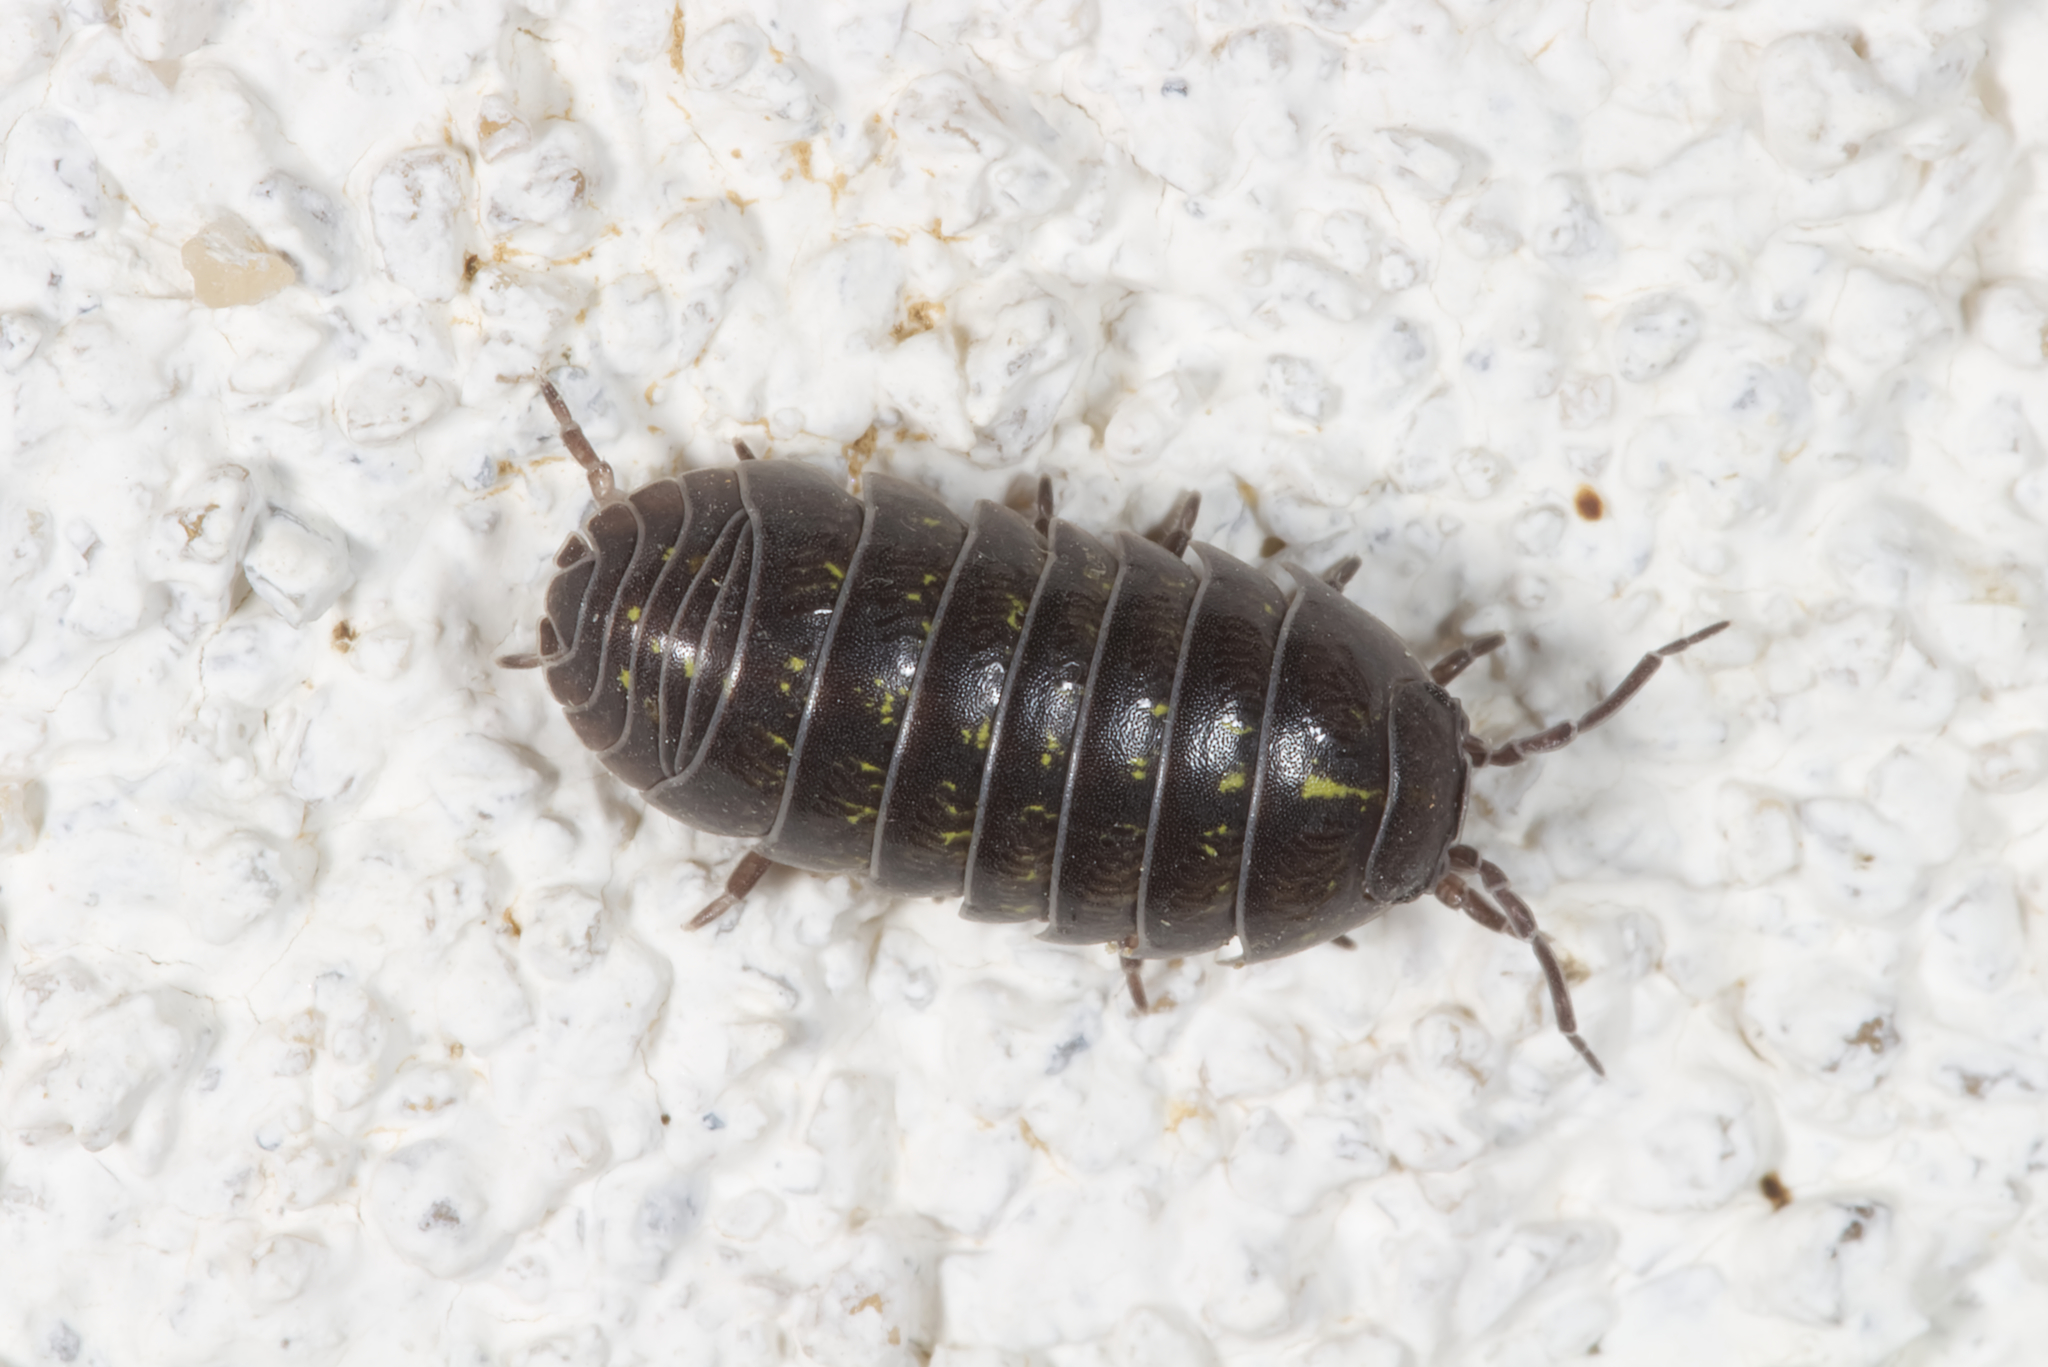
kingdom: Animalia
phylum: Arthropoda
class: Malacostraca
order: Isopoda
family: Armadillidiidae
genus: Armadillidium
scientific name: Armadillidium vulgare
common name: Common pill woodlouse
